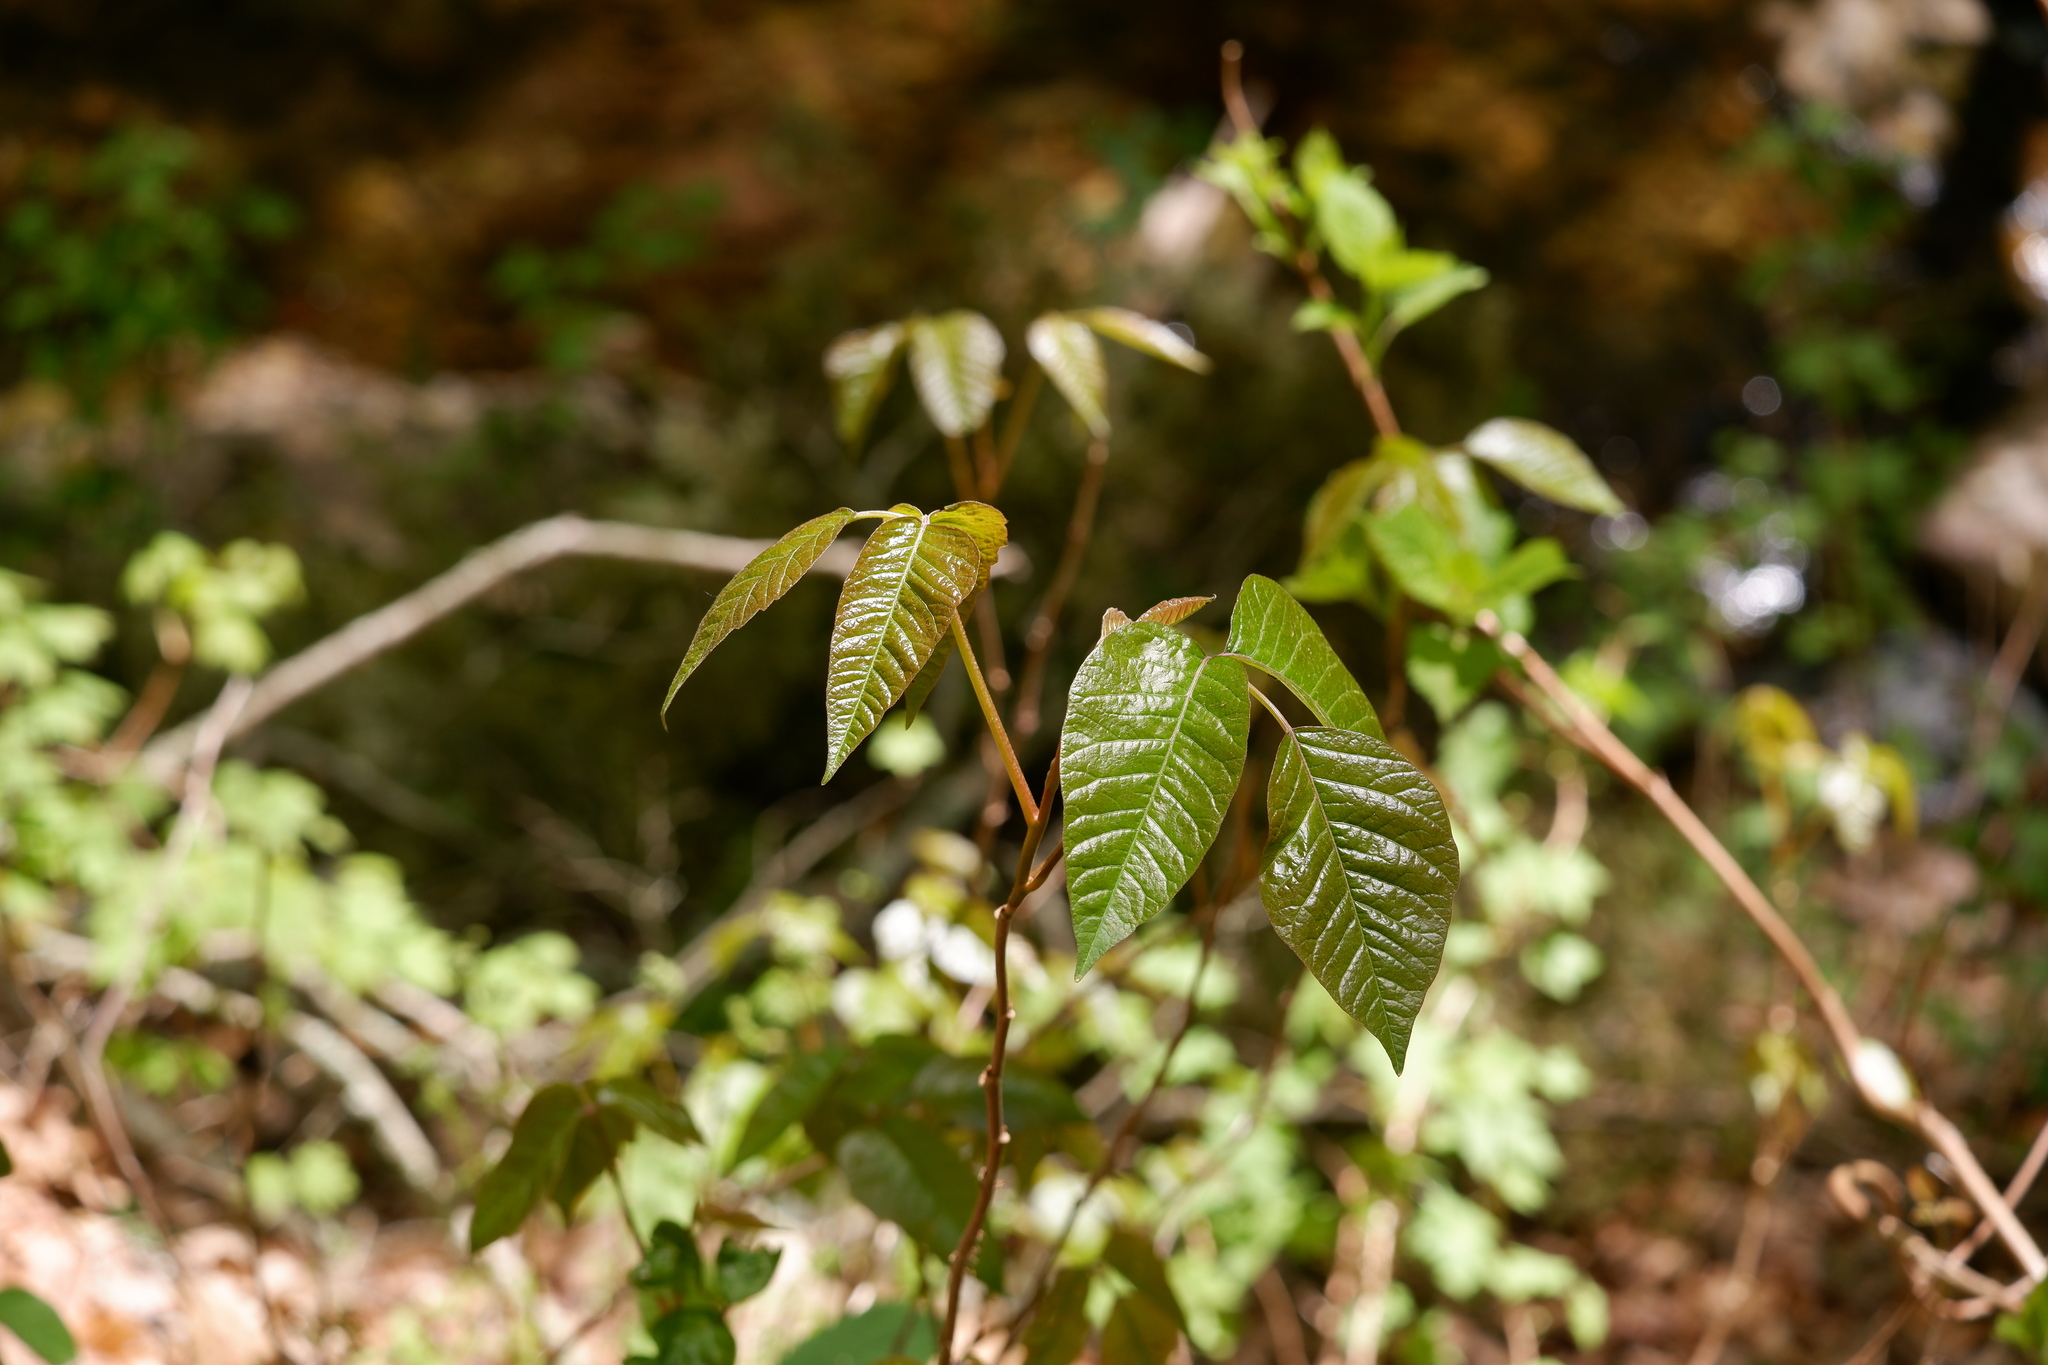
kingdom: Plantae
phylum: Tracheophyta
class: Magnoliopsida
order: Sapindales
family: Anacardiaceae
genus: Toxicodendron
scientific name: Toxicodendron radicans
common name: Poison ivy
